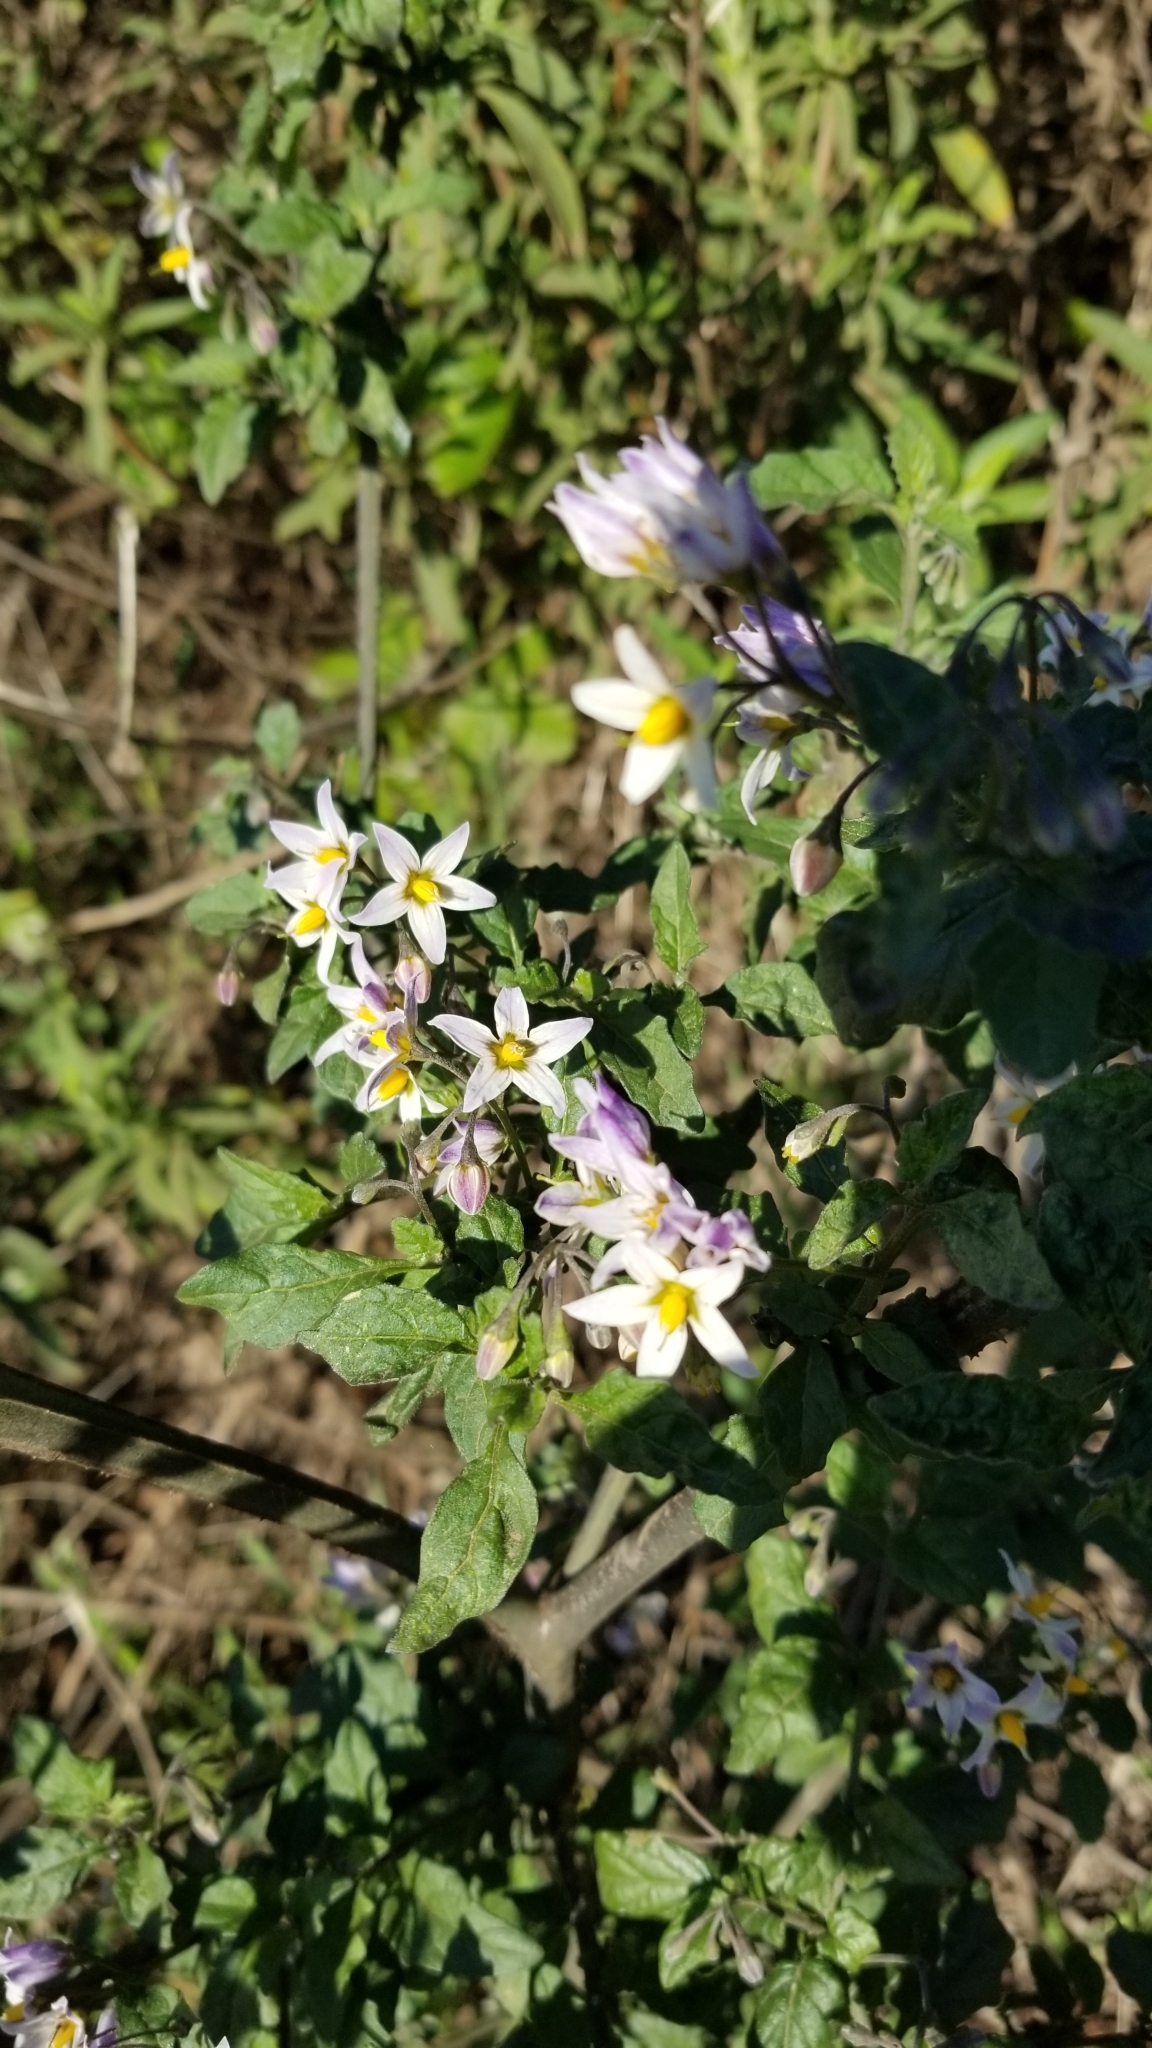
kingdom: Plantae
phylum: Tracheophyta
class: Magnoliopsida
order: Solanales
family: Solanaceae
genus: Solanum
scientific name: Solanum douglasii
